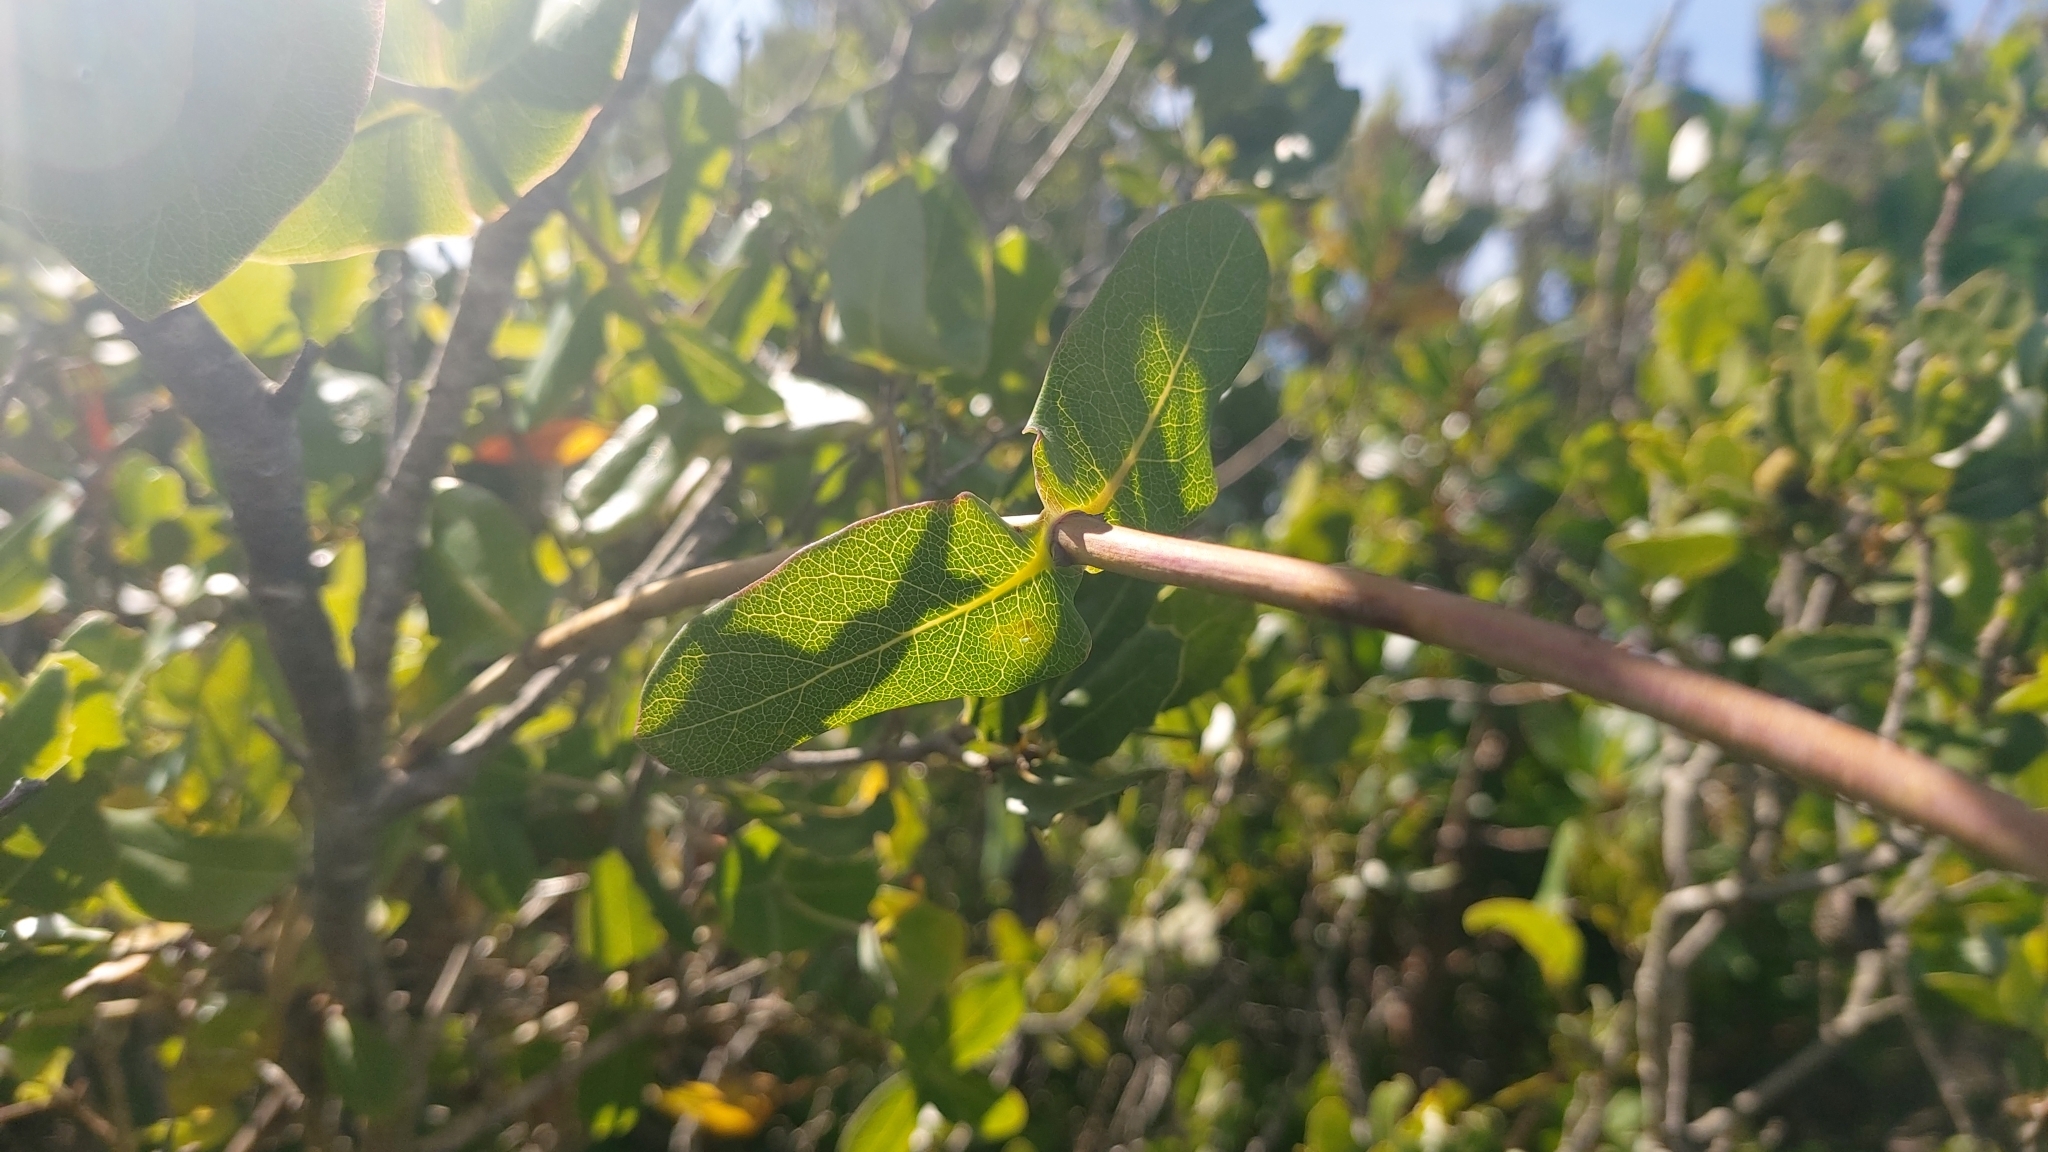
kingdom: Plantae
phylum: Tracheophyta
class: Magnoliopsida
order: Dipsacales
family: Caprifoliaceae
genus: Lonicera
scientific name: Lonicera implexa
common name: Minorca honeysuckle
